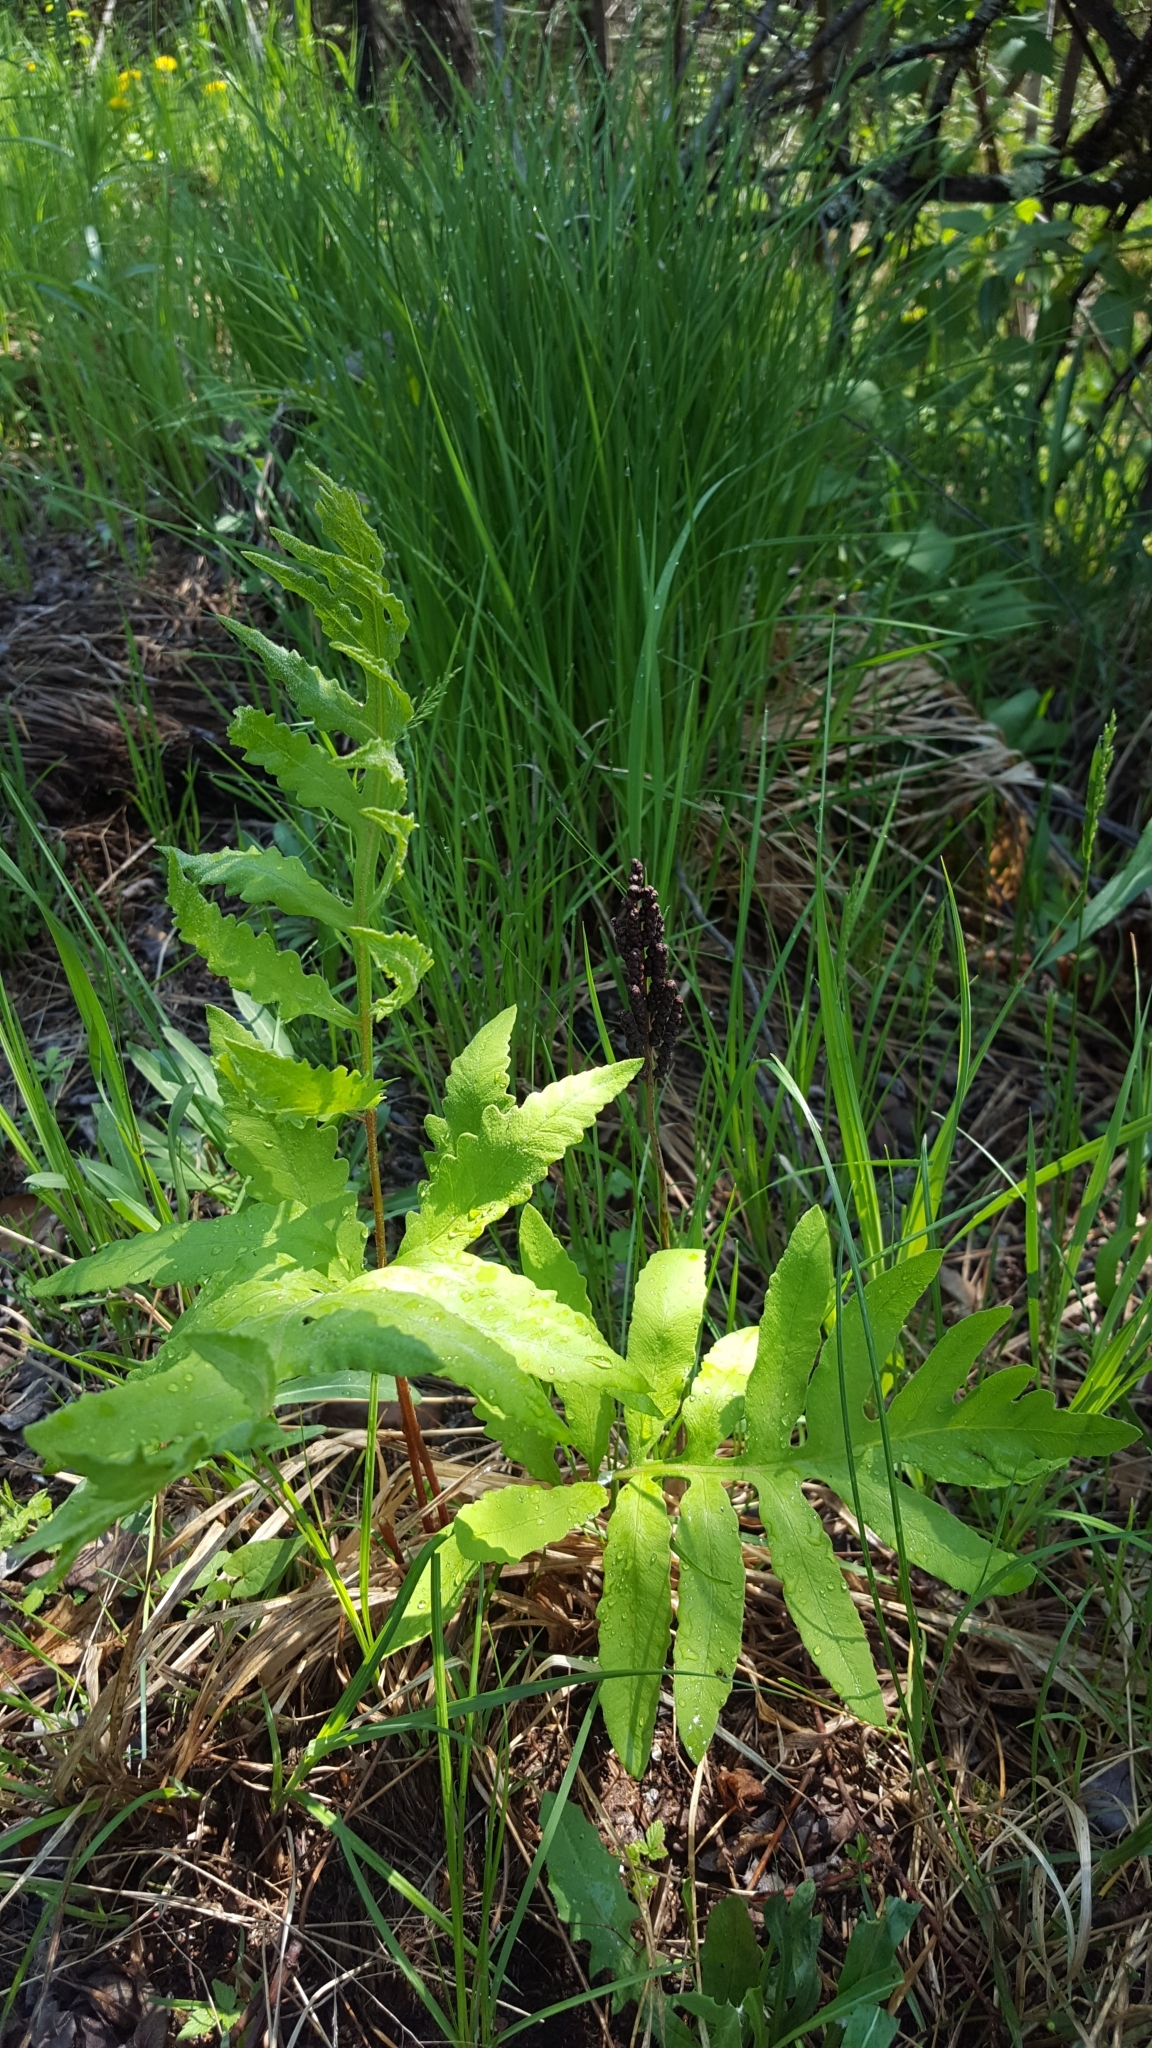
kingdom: Plantae
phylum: Tracheophyta
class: Polypodiopsida
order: Polypodiales
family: Onocleaceae
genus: Onoclea
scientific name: Onoclea sensibilis
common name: Sensitive fern
